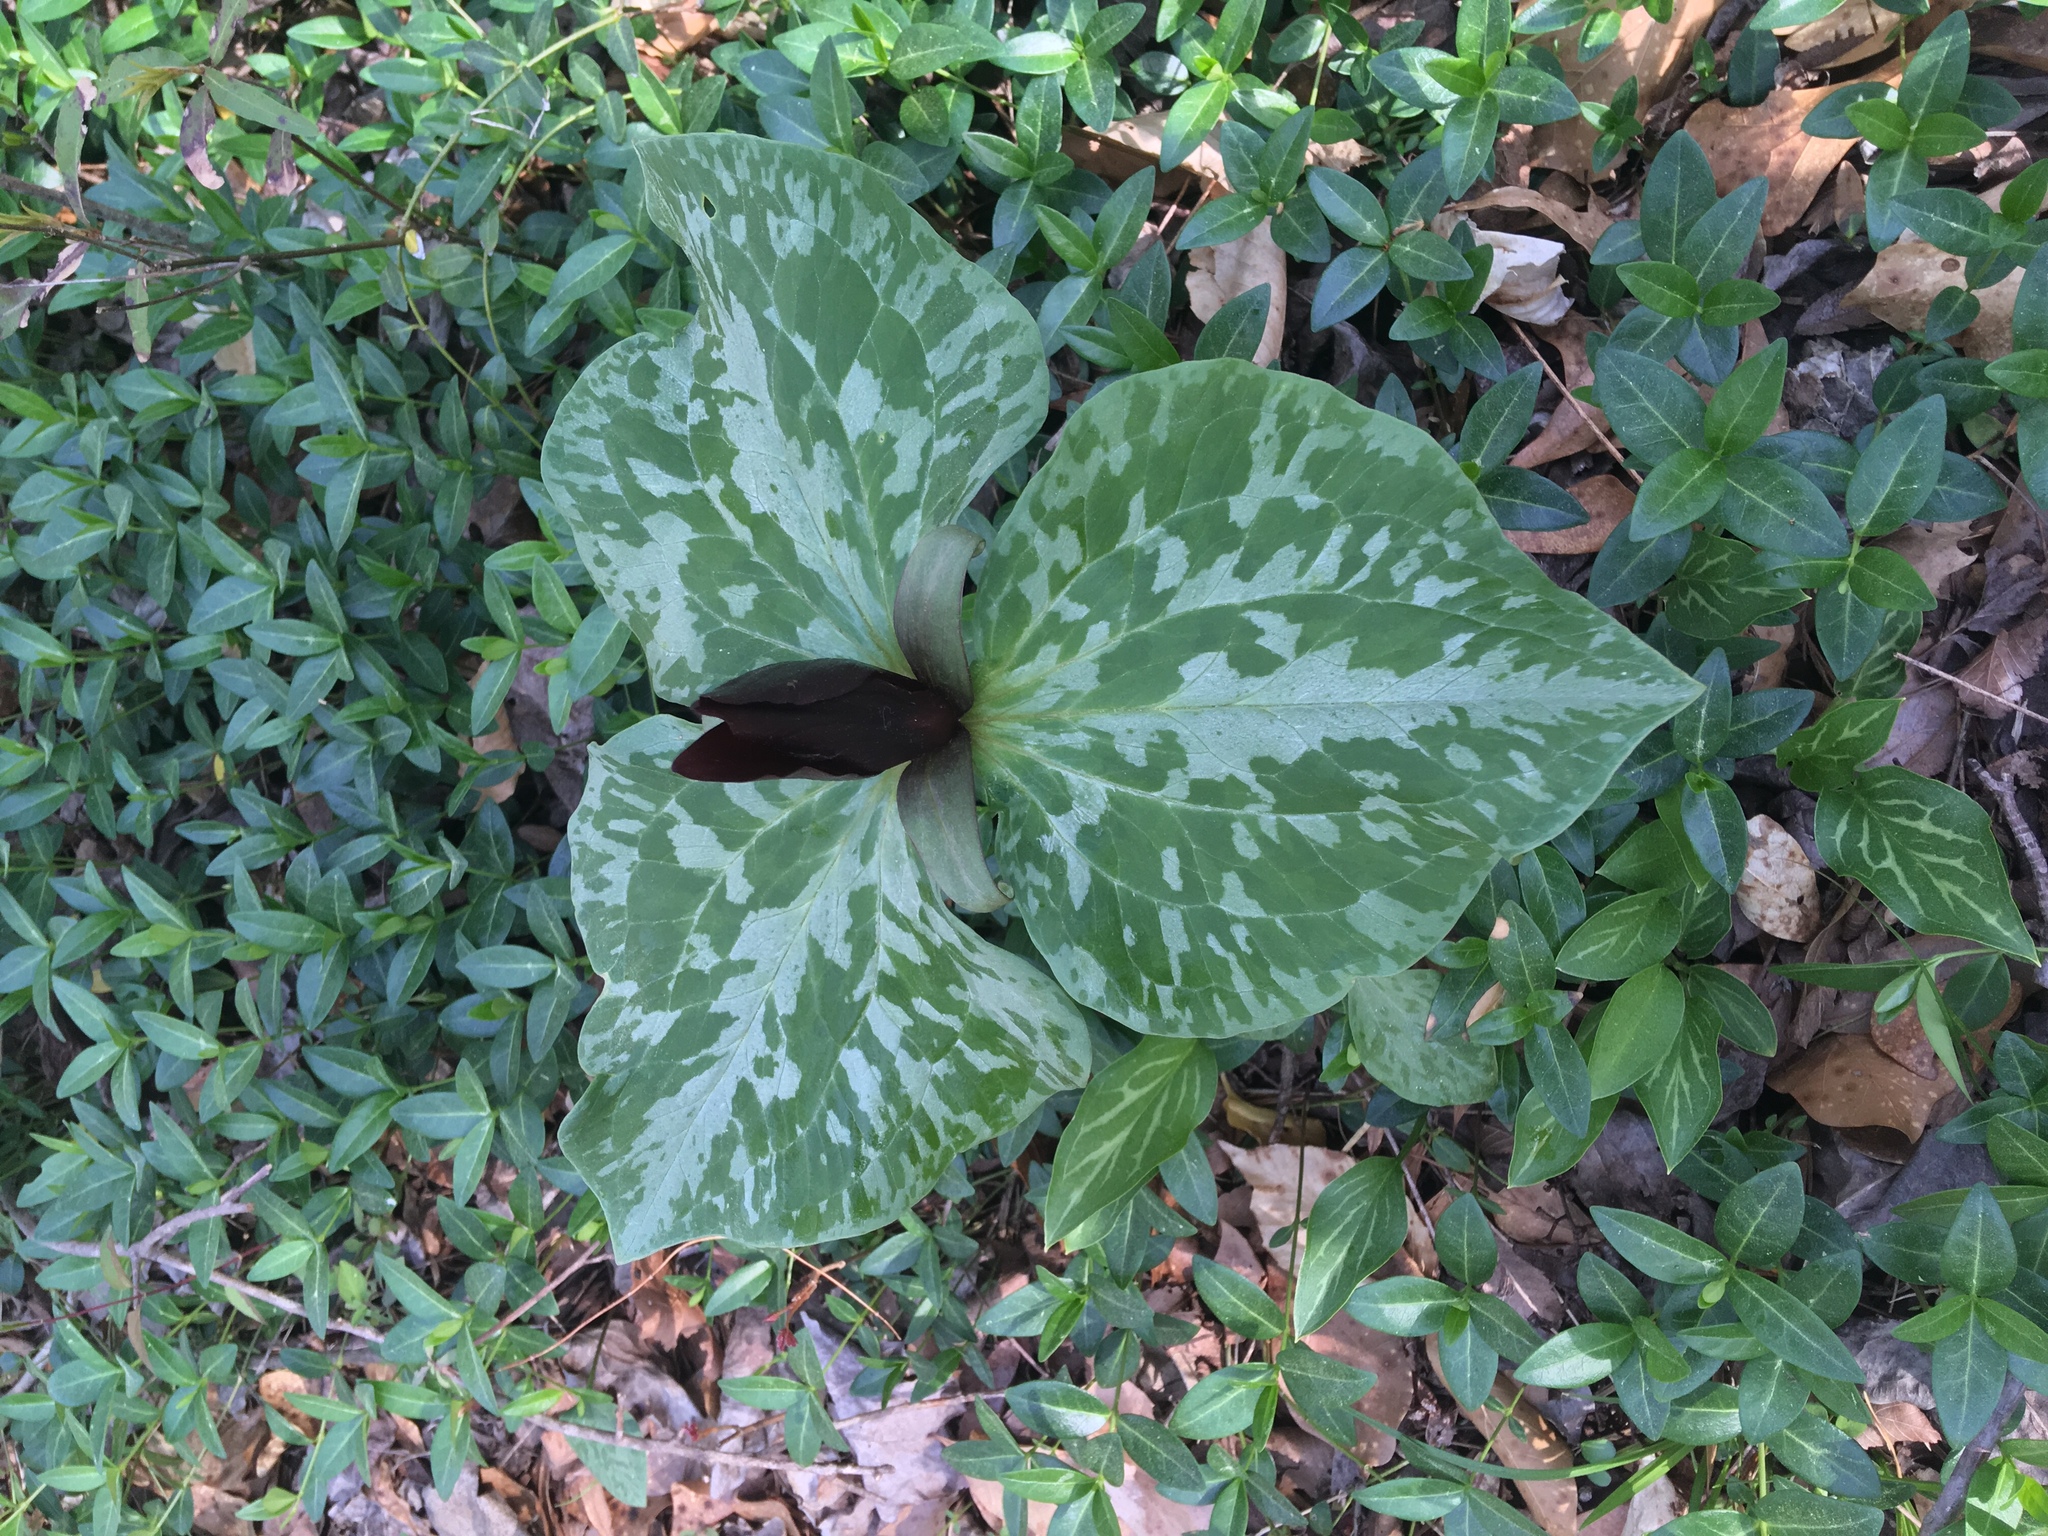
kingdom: Plantae
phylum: Tracheophyta
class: Liliopsida
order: Liliales
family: Melanthiaceae
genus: Trillium
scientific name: Trillium cuneatum
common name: Cuneate trillium
